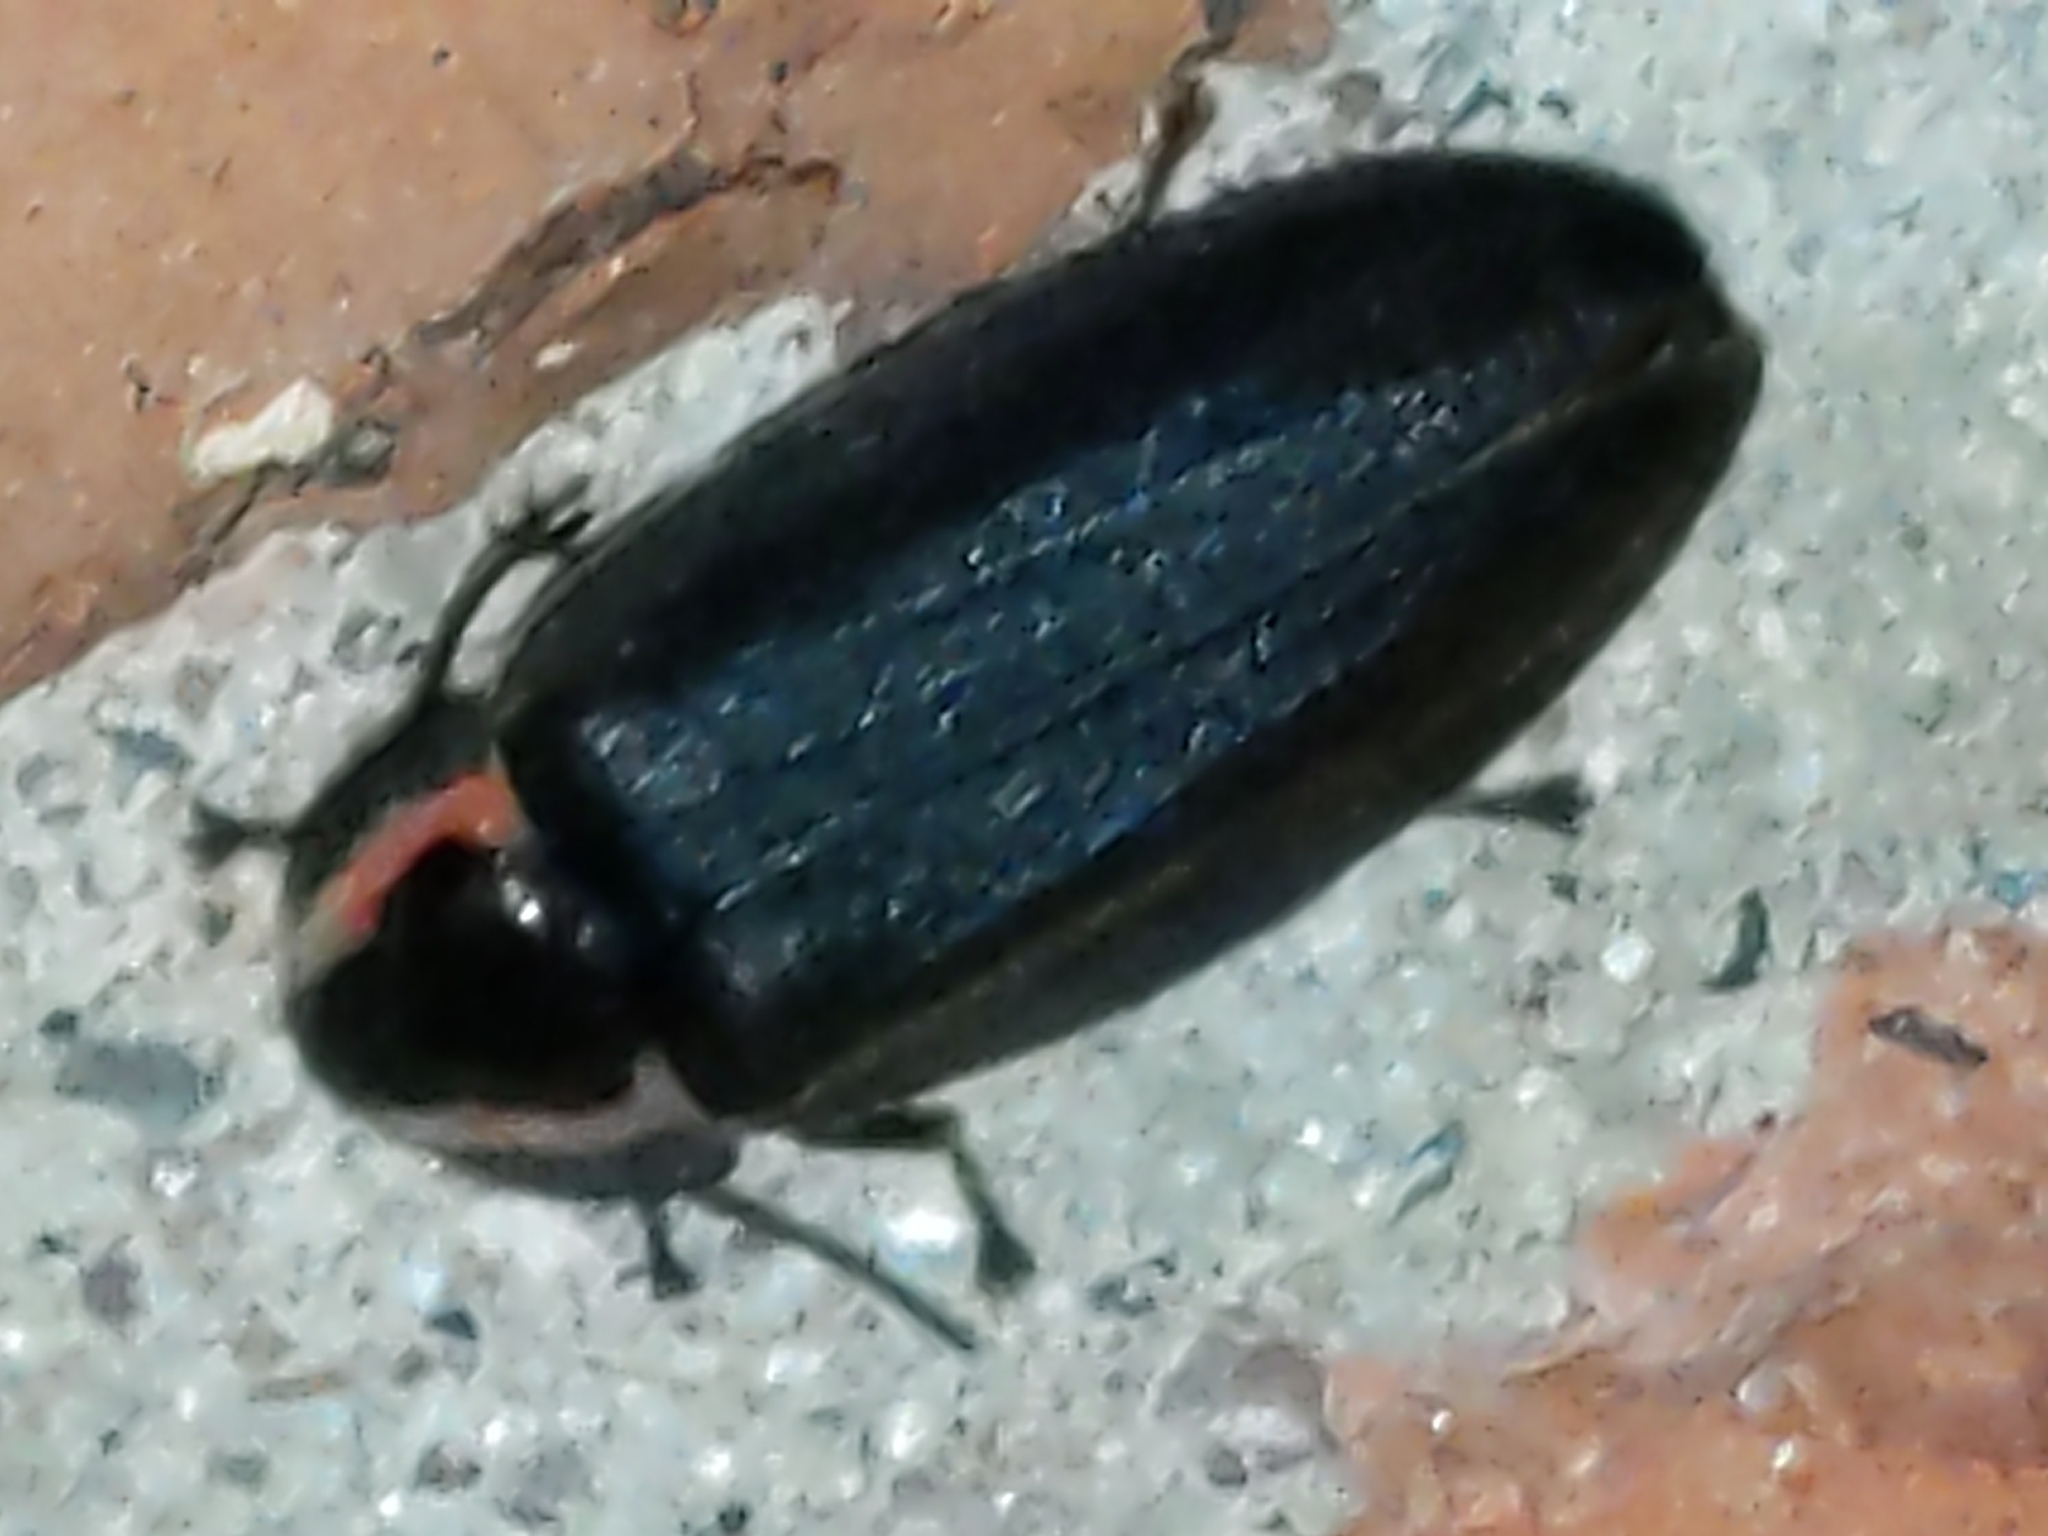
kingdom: Animalia
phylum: Arthropoda
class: Insecta
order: Coleoptera
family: Lampyridae
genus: Photinus
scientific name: Photinus corrusca
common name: Winter firefly
